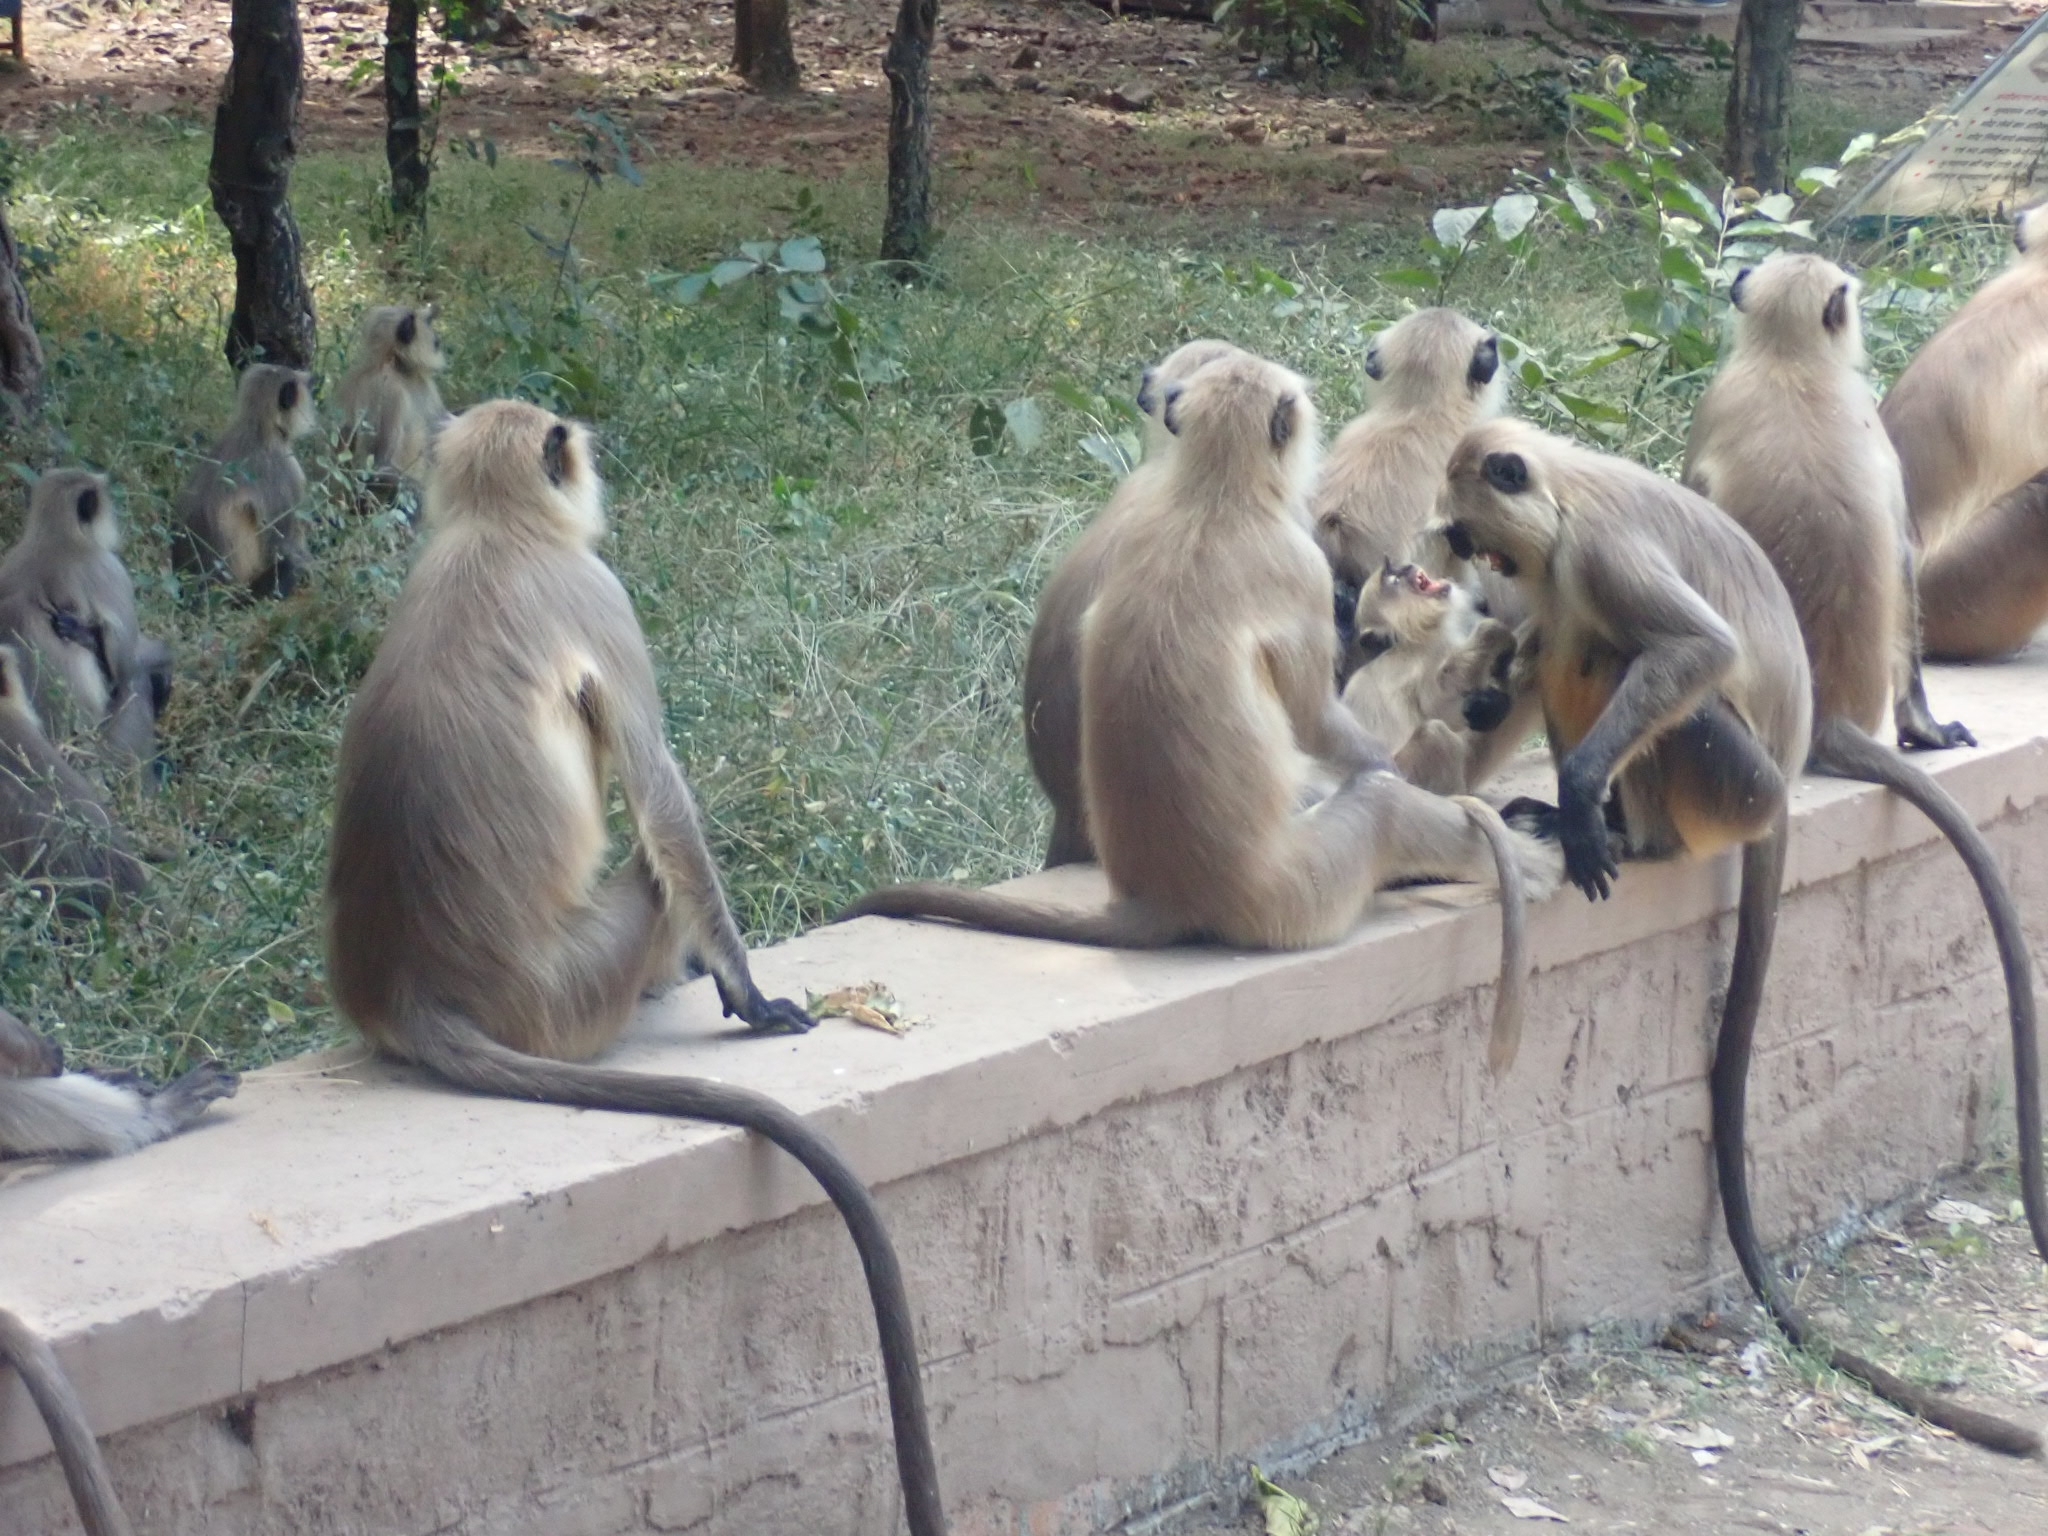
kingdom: Animalia
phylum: Chordata
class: Mammalia
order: Primates
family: Cercopithecidae
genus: Semnopithecus
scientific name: Semnopithecus entellus
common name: Northern plains gray langur
